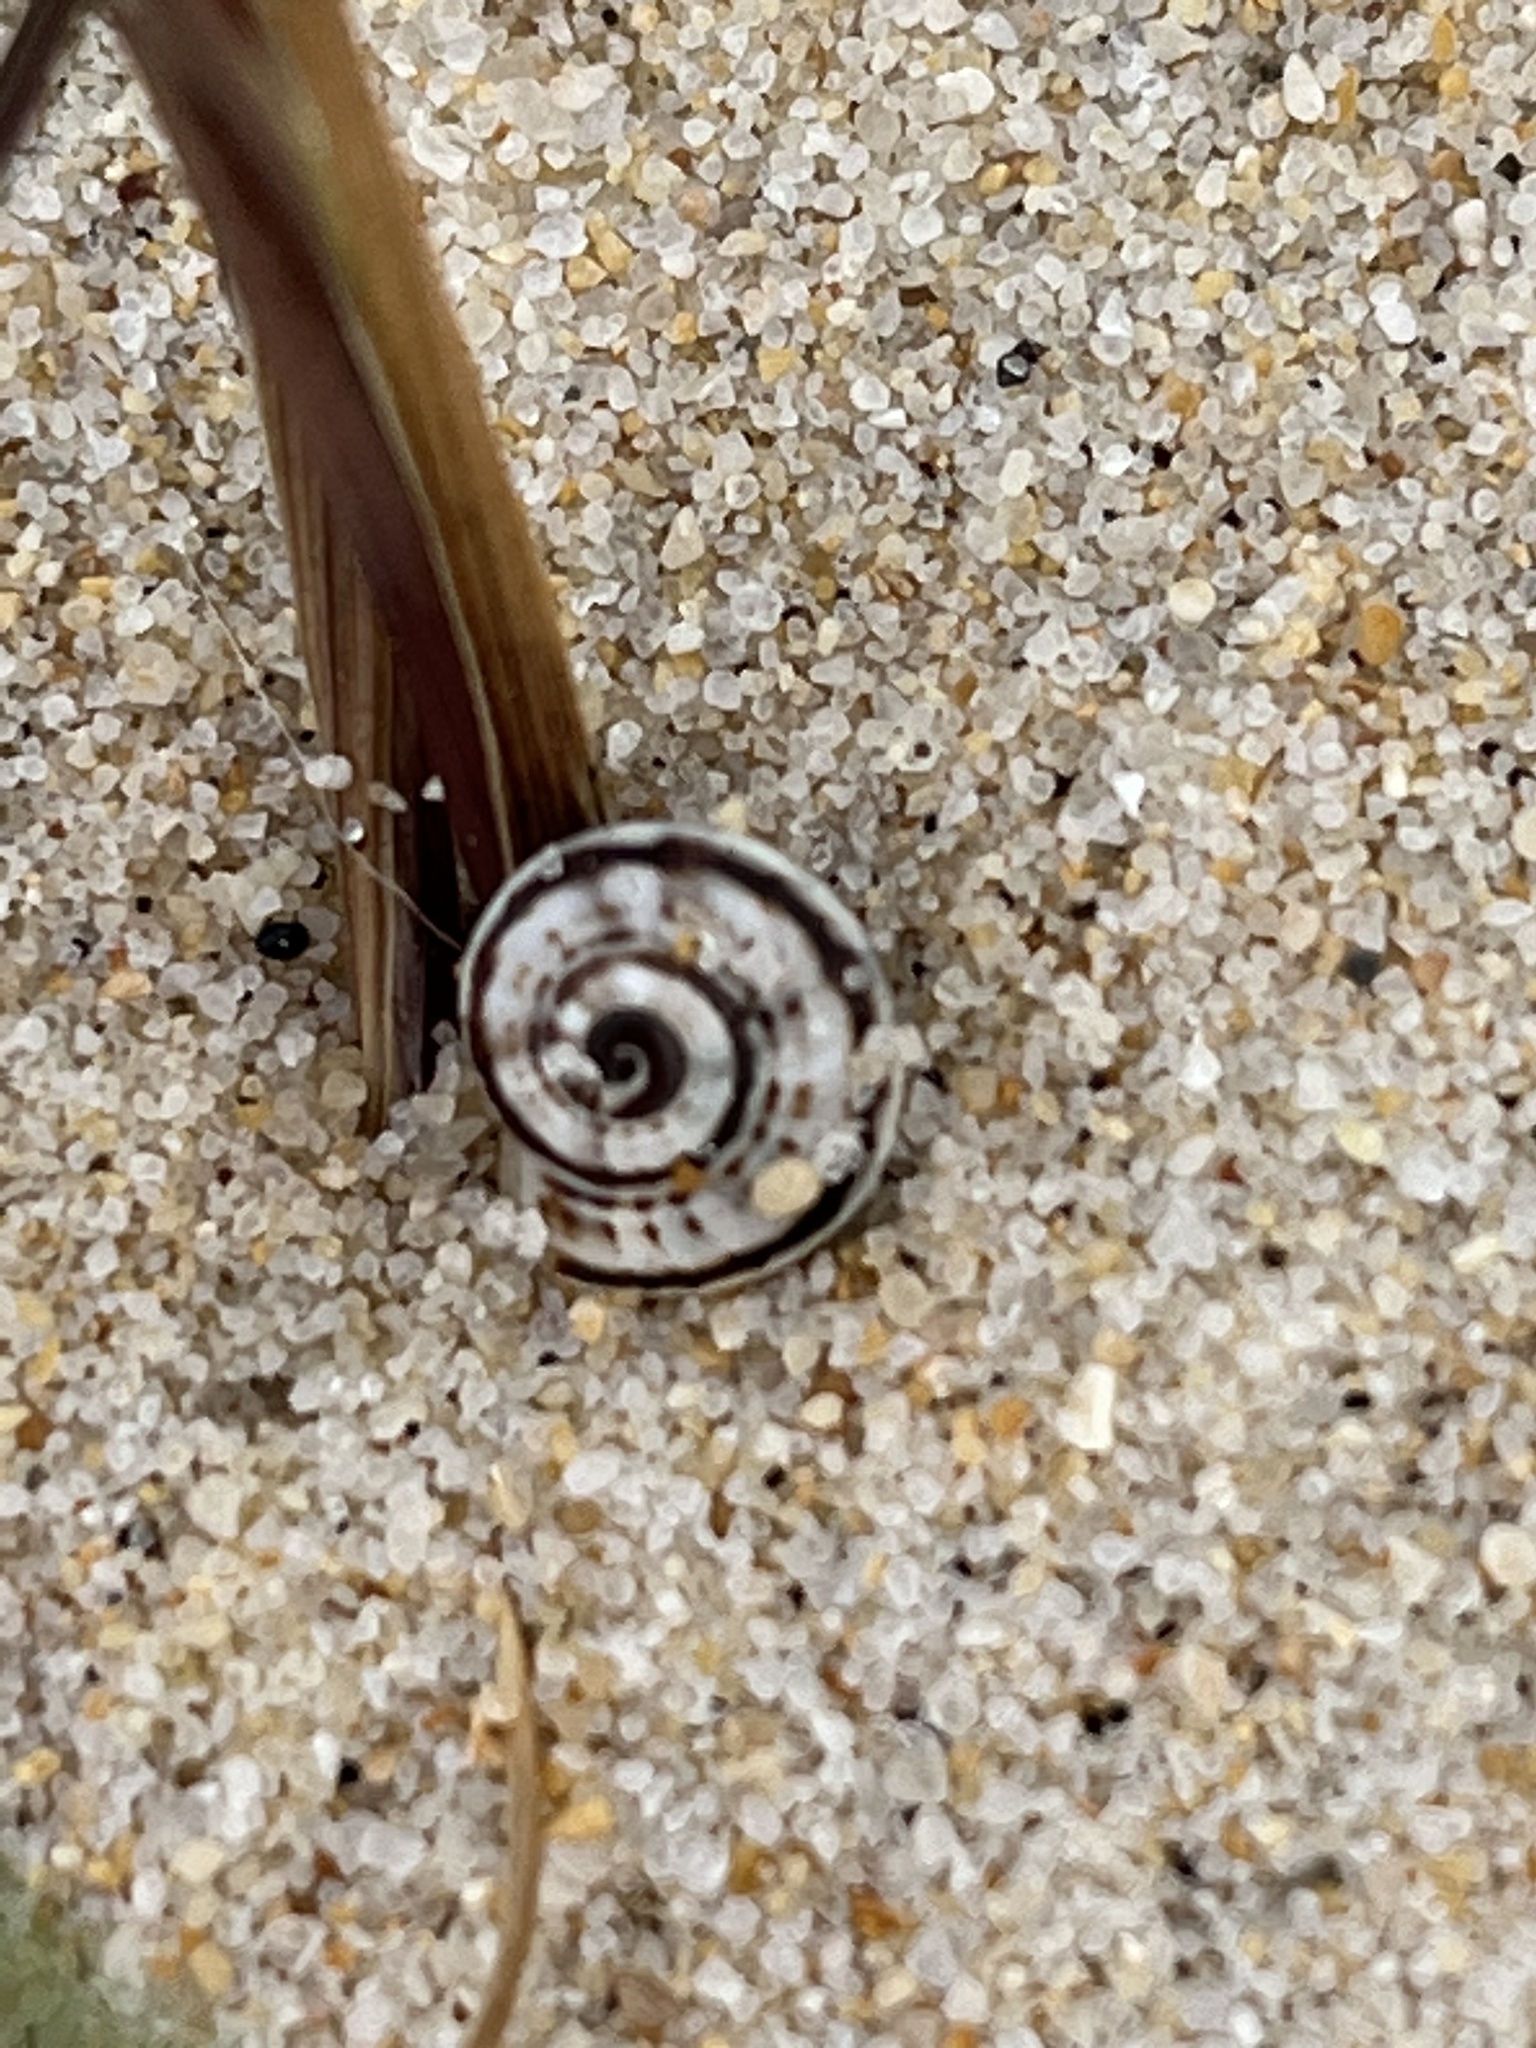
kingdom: Animalia
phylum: Mollusca
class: Gastropoda
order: Stylommatophora
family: Helicidae
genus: Theba
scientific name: Theba pisana
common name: White snail
